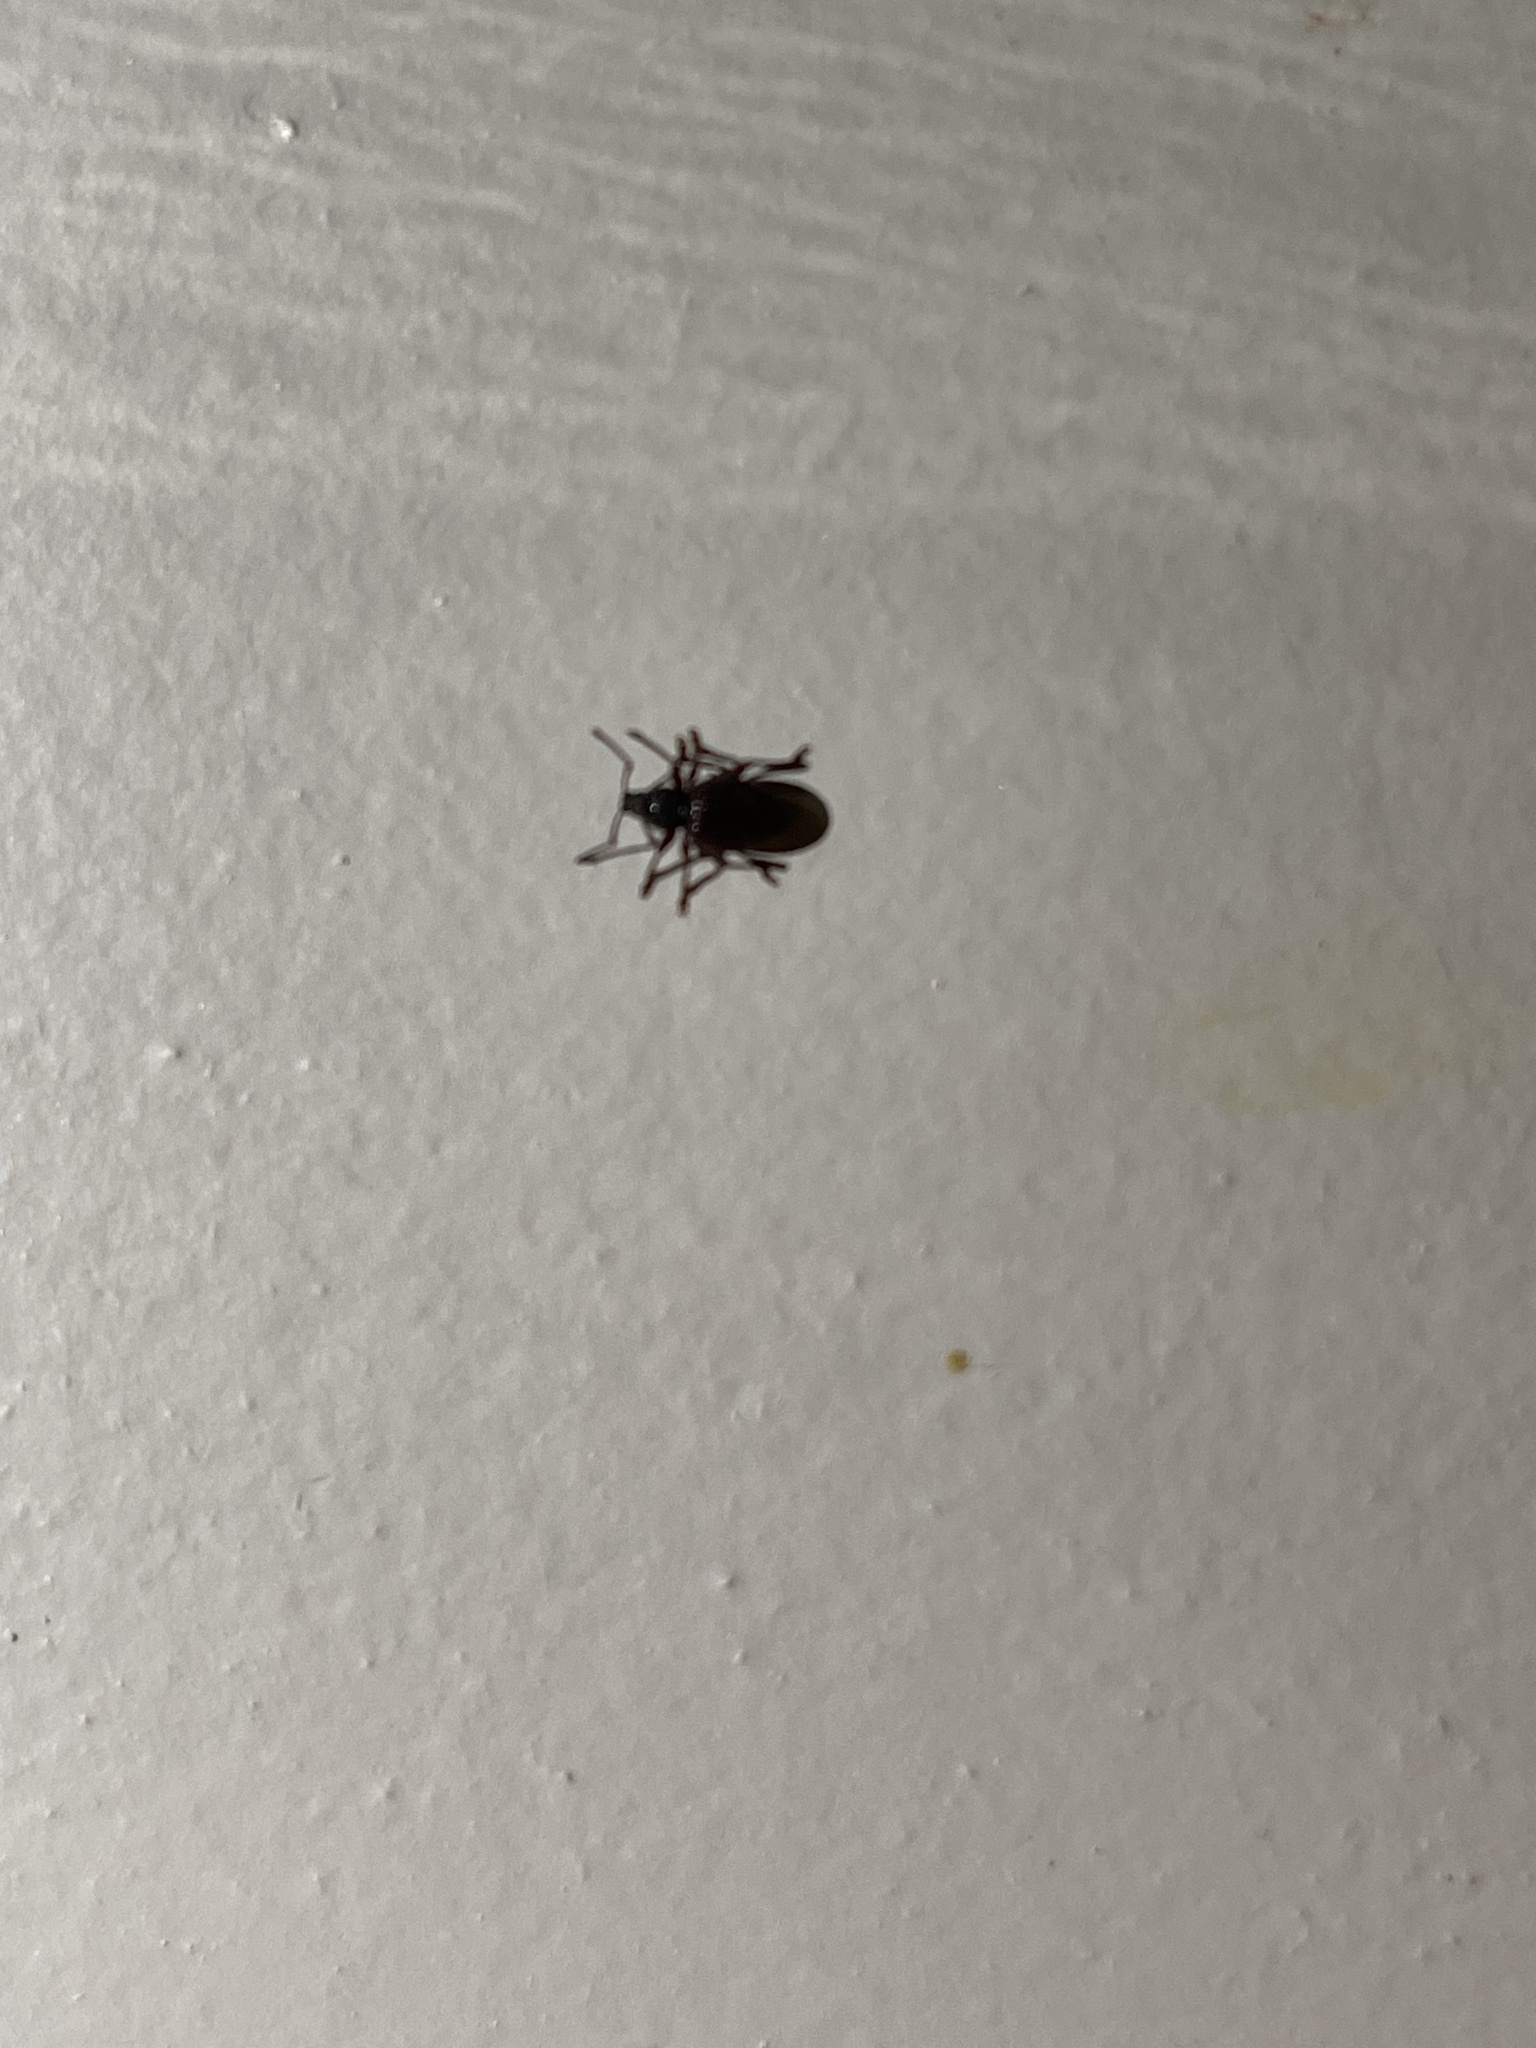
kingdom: Animalia
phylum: Arthropoda
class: Insecta
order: Coleoptera
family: Curculionidae
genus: Otiorhynchus
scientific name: Otiorhynchus ovatus
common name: Strawberry root weevil
